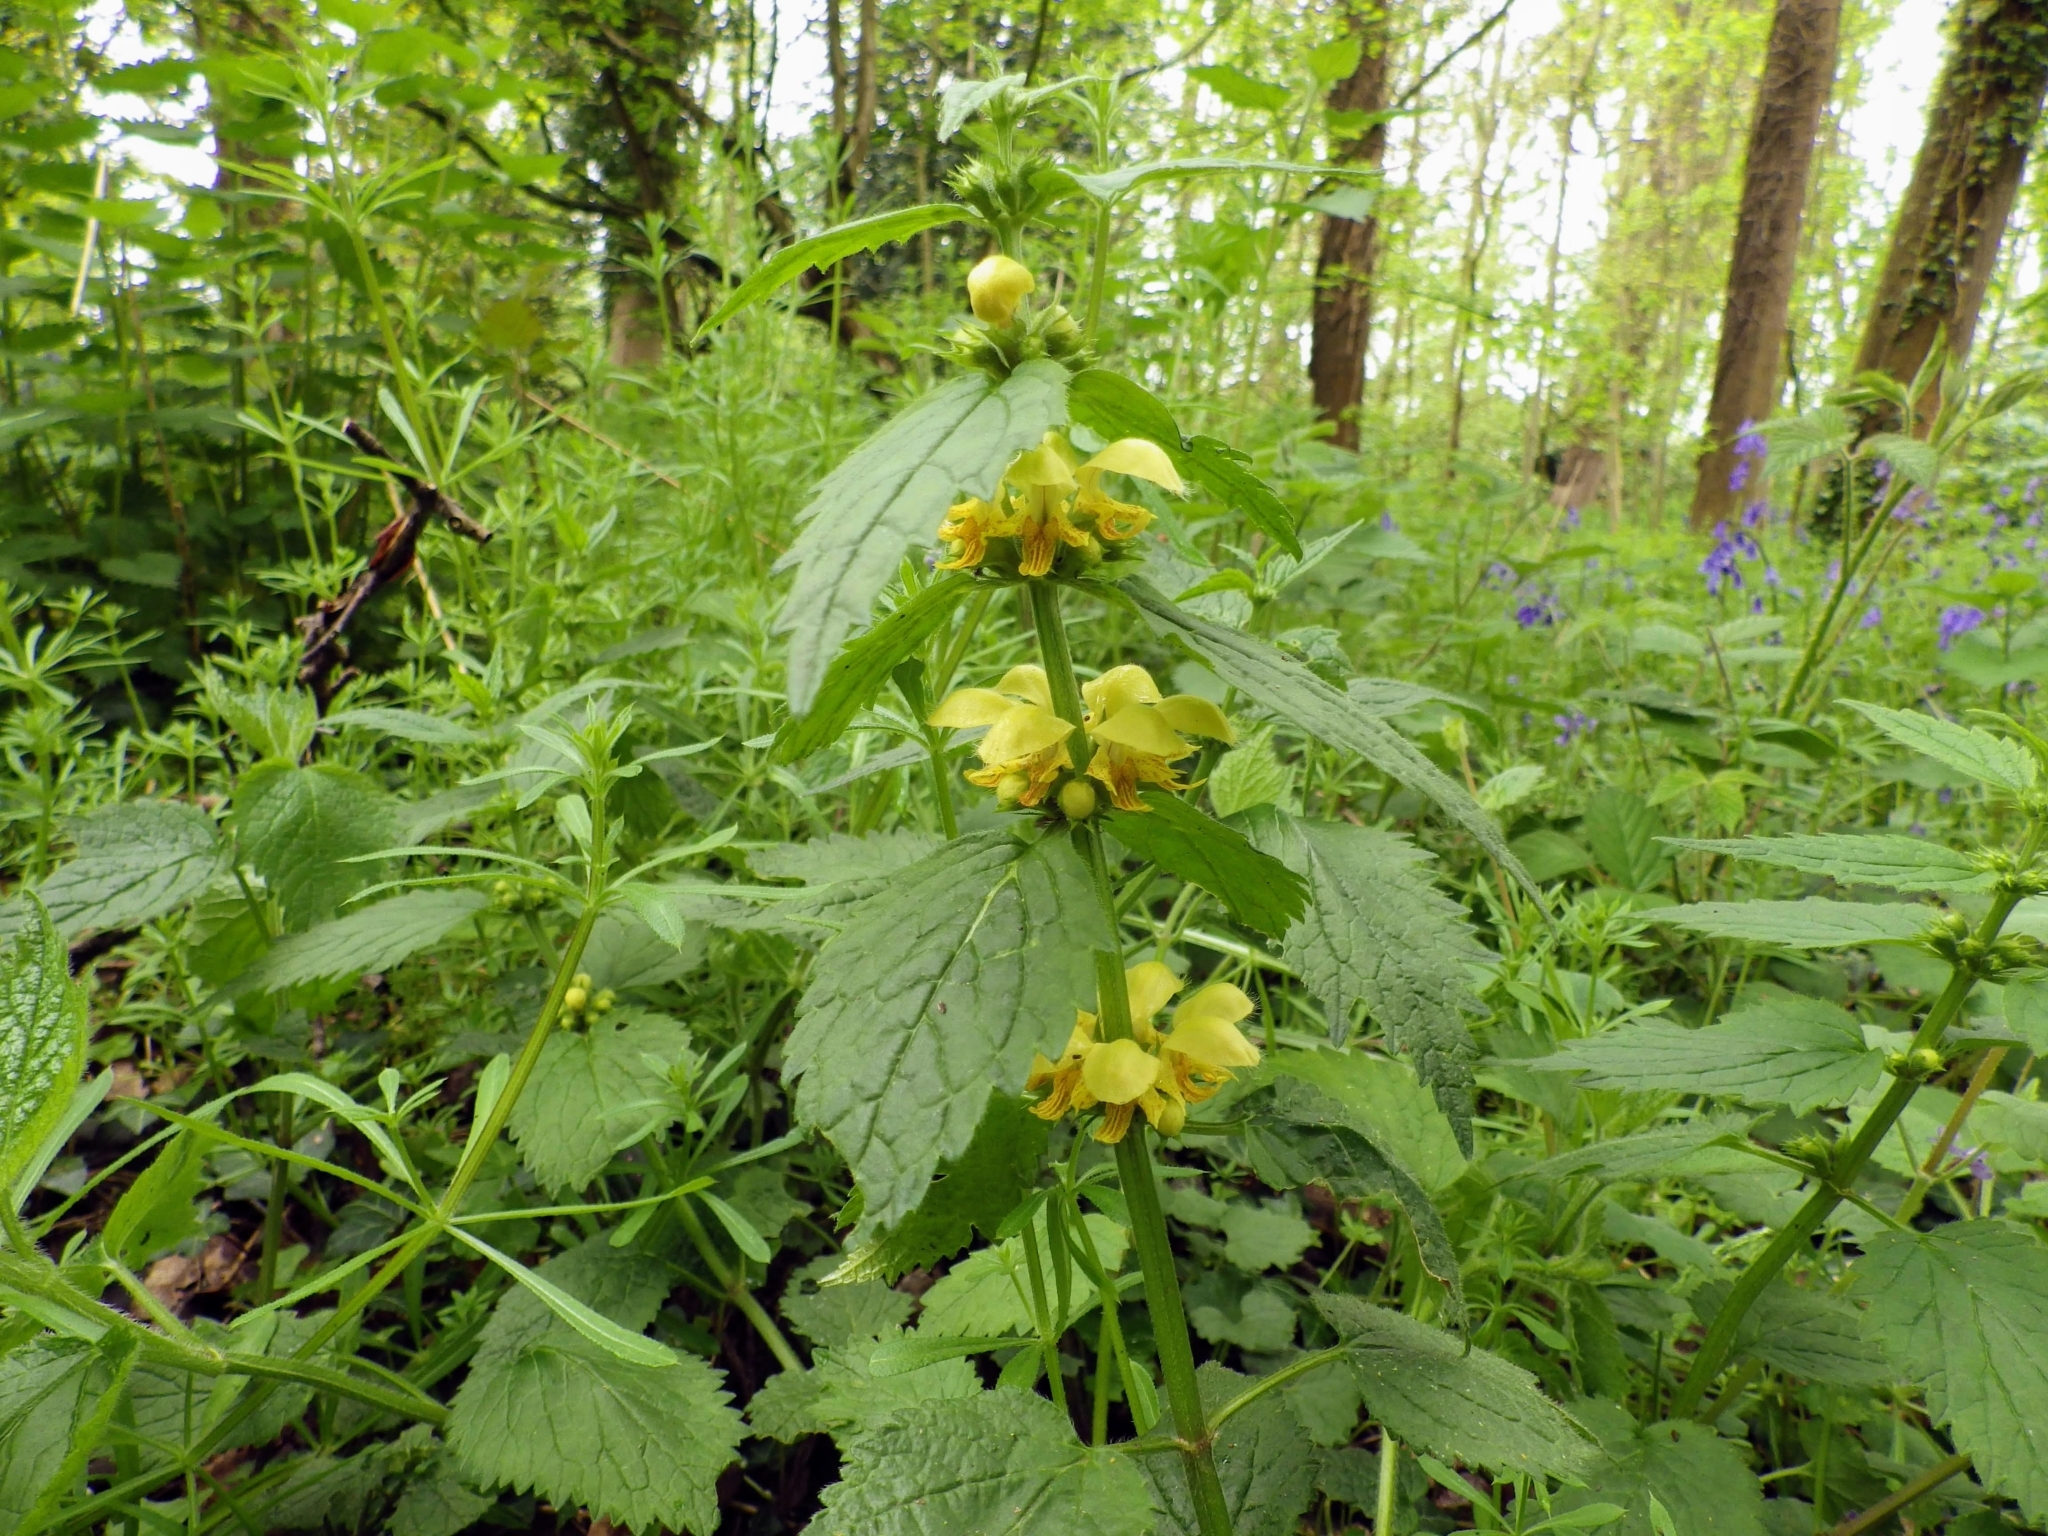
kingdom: Plantae
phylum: Tracheophyta
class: Magnoliopsida
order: Lamiales
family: Lamiaceae
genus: Lamium
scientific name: Lamium galeobdolon
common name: Yellow archangel
